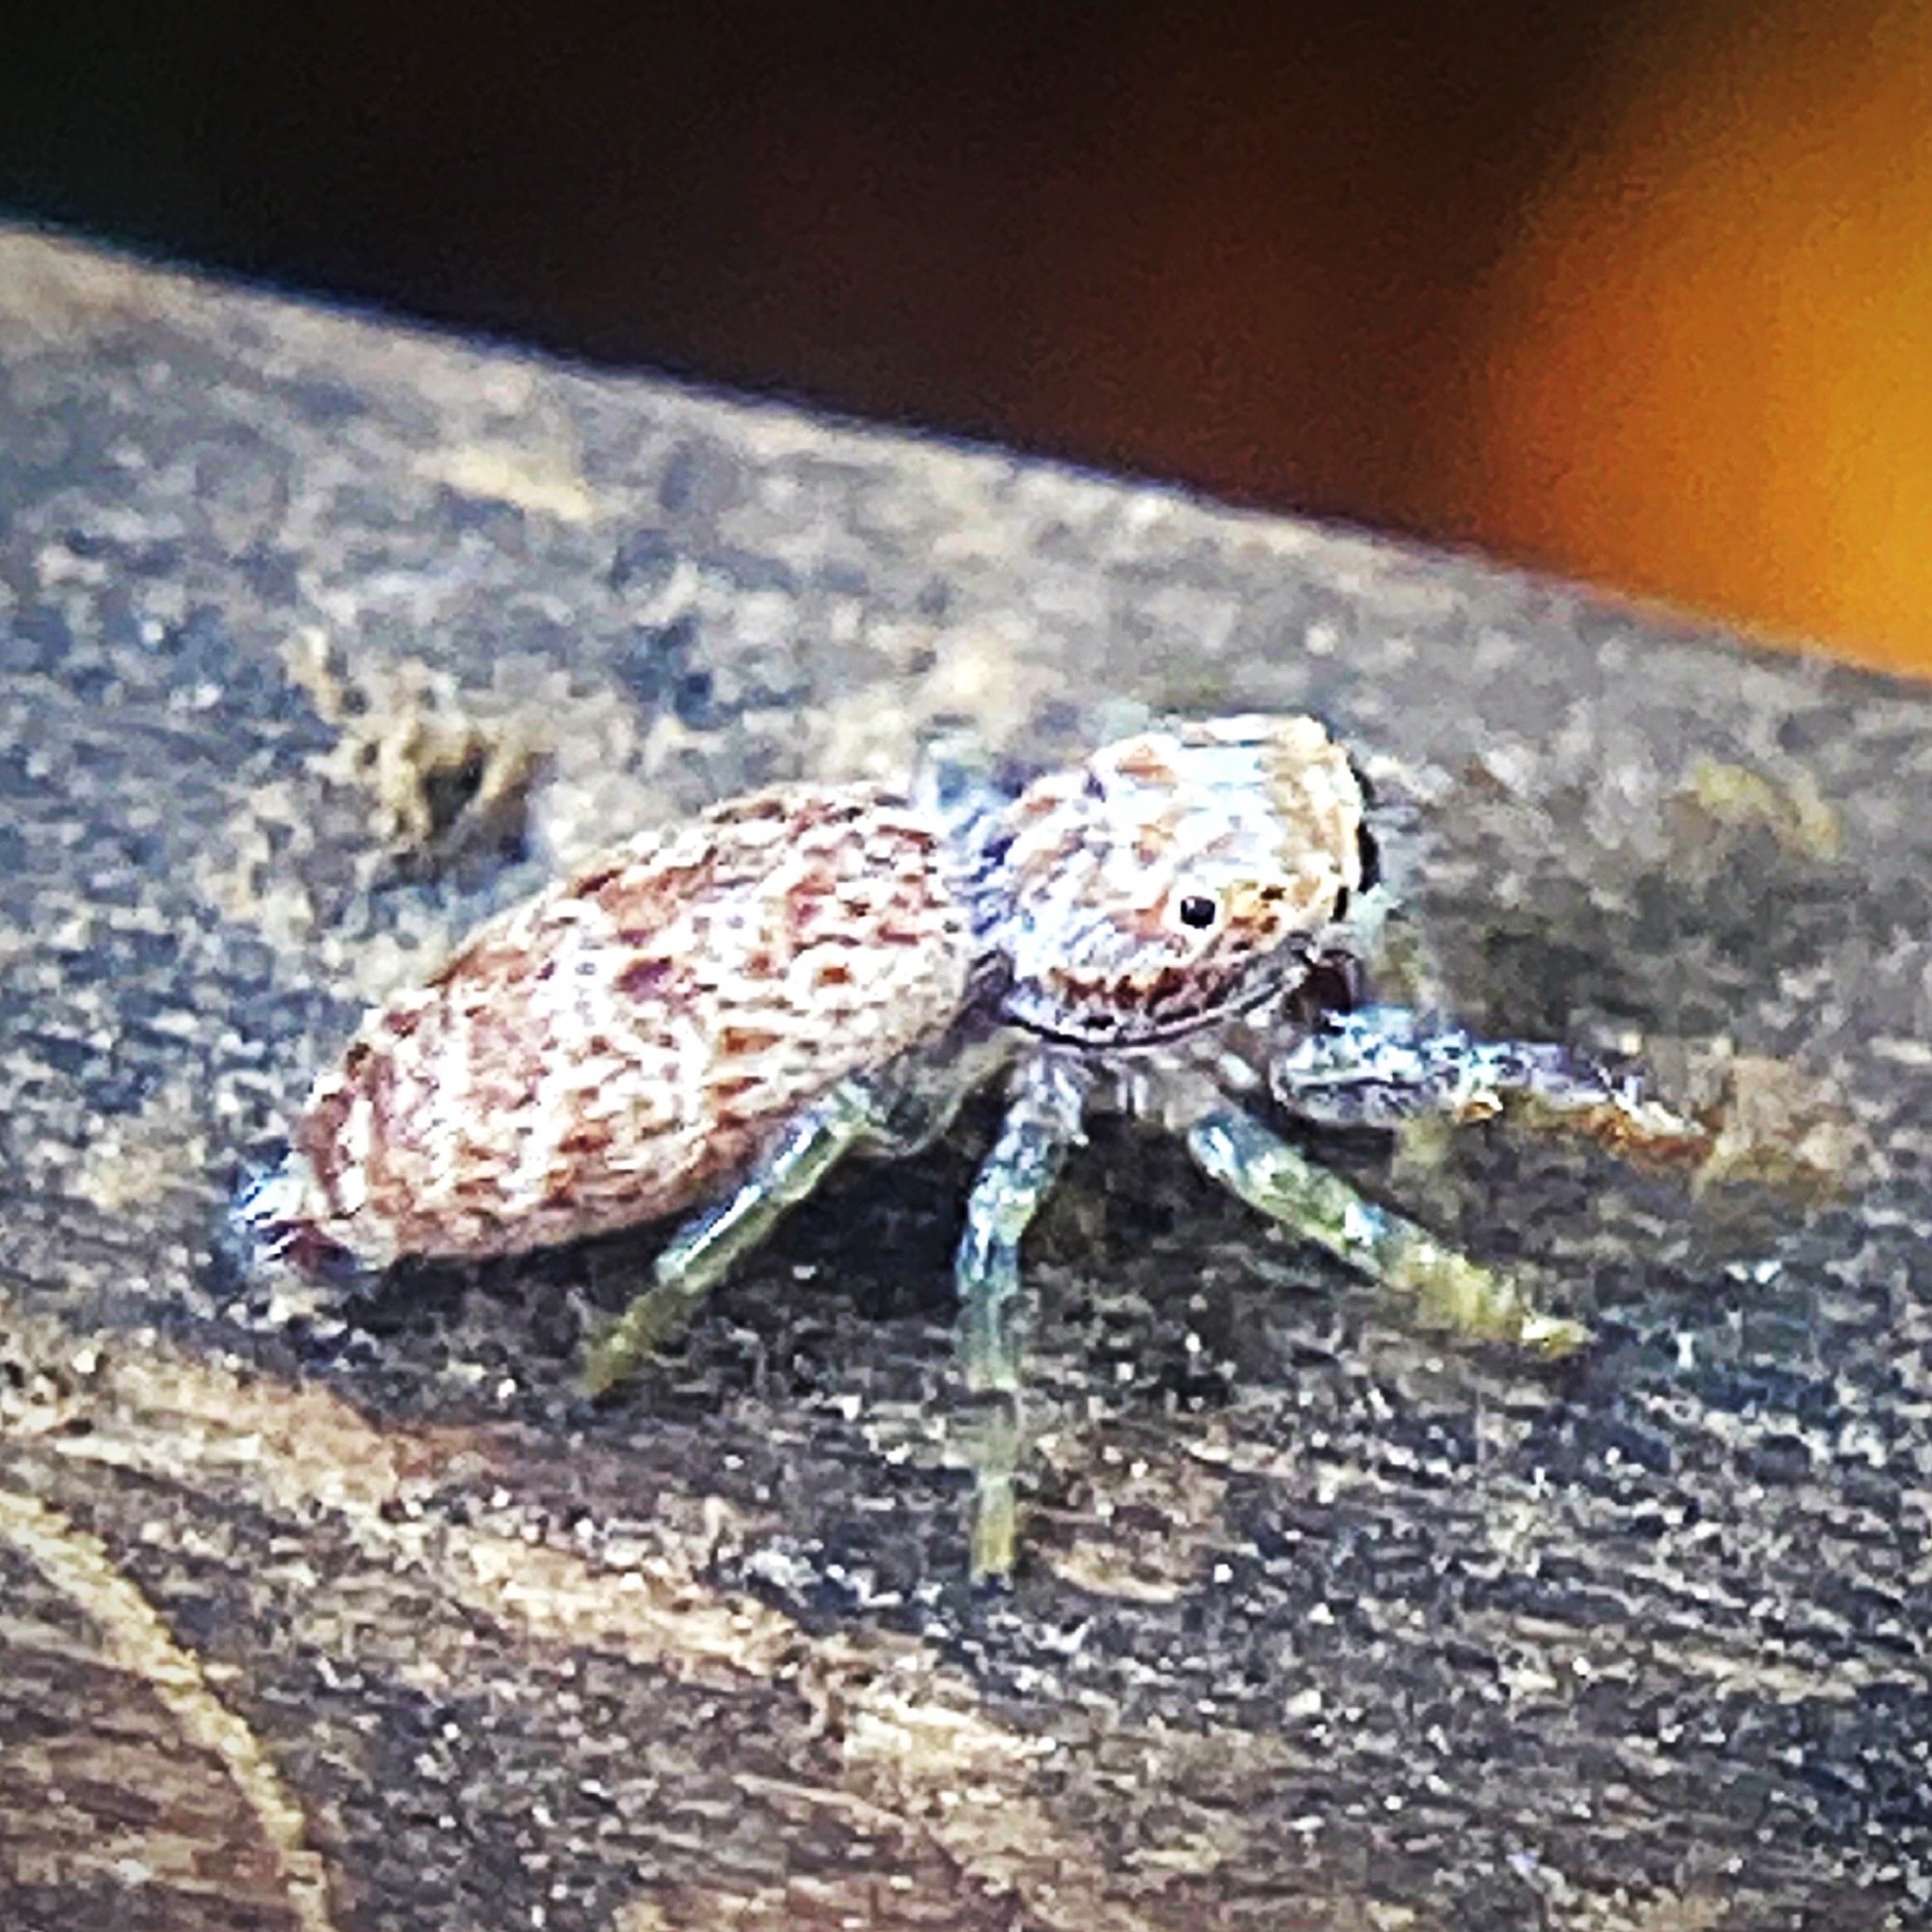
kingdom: Animalia
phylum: Arthropoda
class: Arachnida
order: Araneae
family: Salticidae
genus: Hentzia
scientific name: Hentzia palmarum
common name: Common hentz jumping spider
